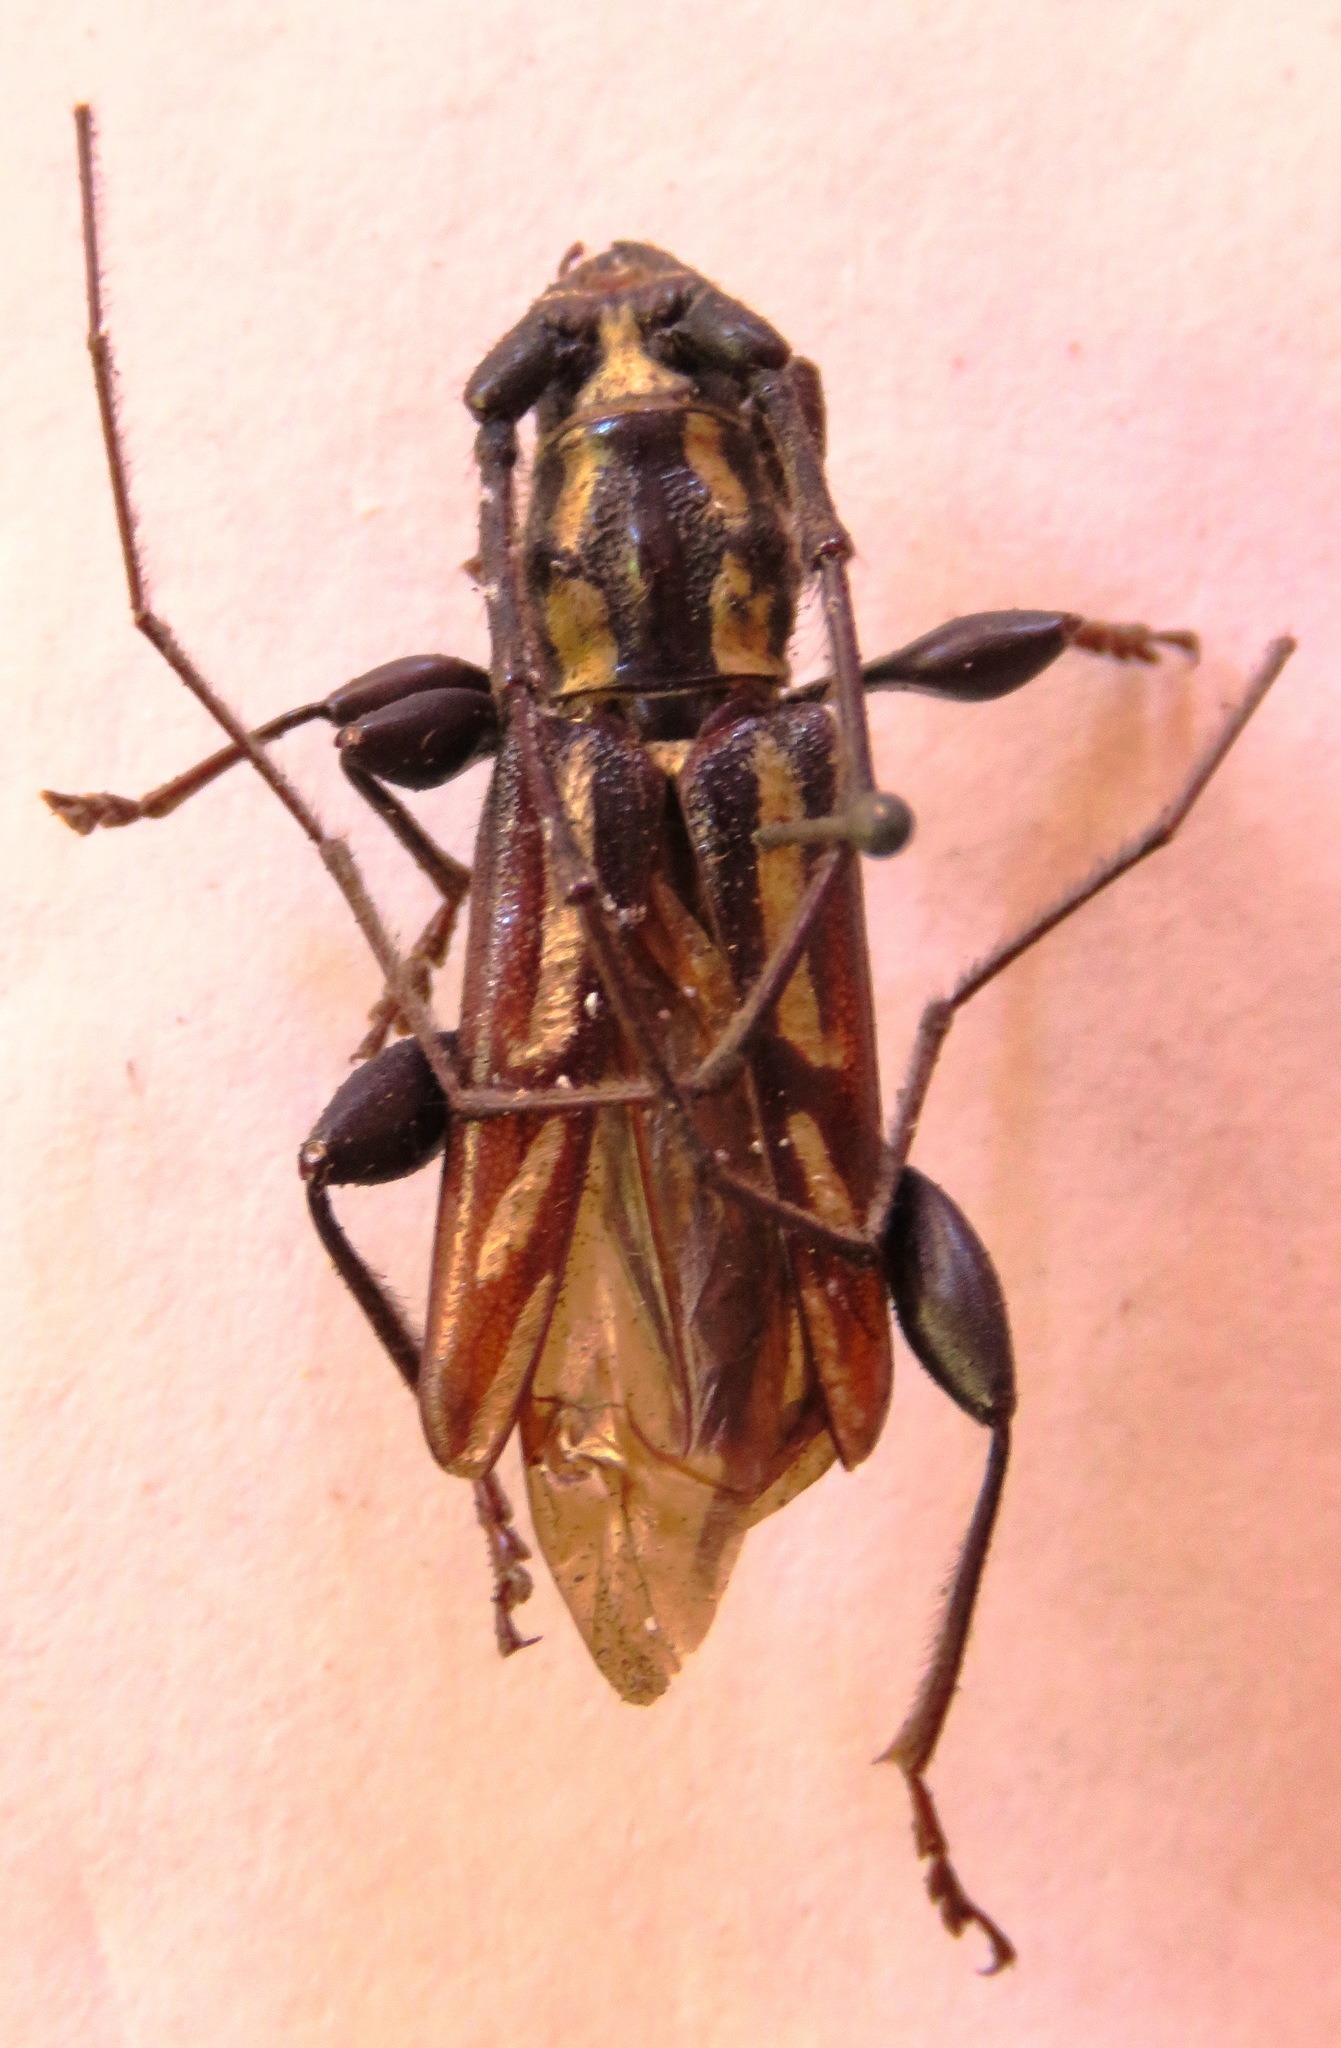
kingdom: Animalia
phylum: Arthropoda
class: Insecta
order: Coleoptera
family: Cerambycidae
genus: Ornithia
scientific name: Ornithia mexicana
